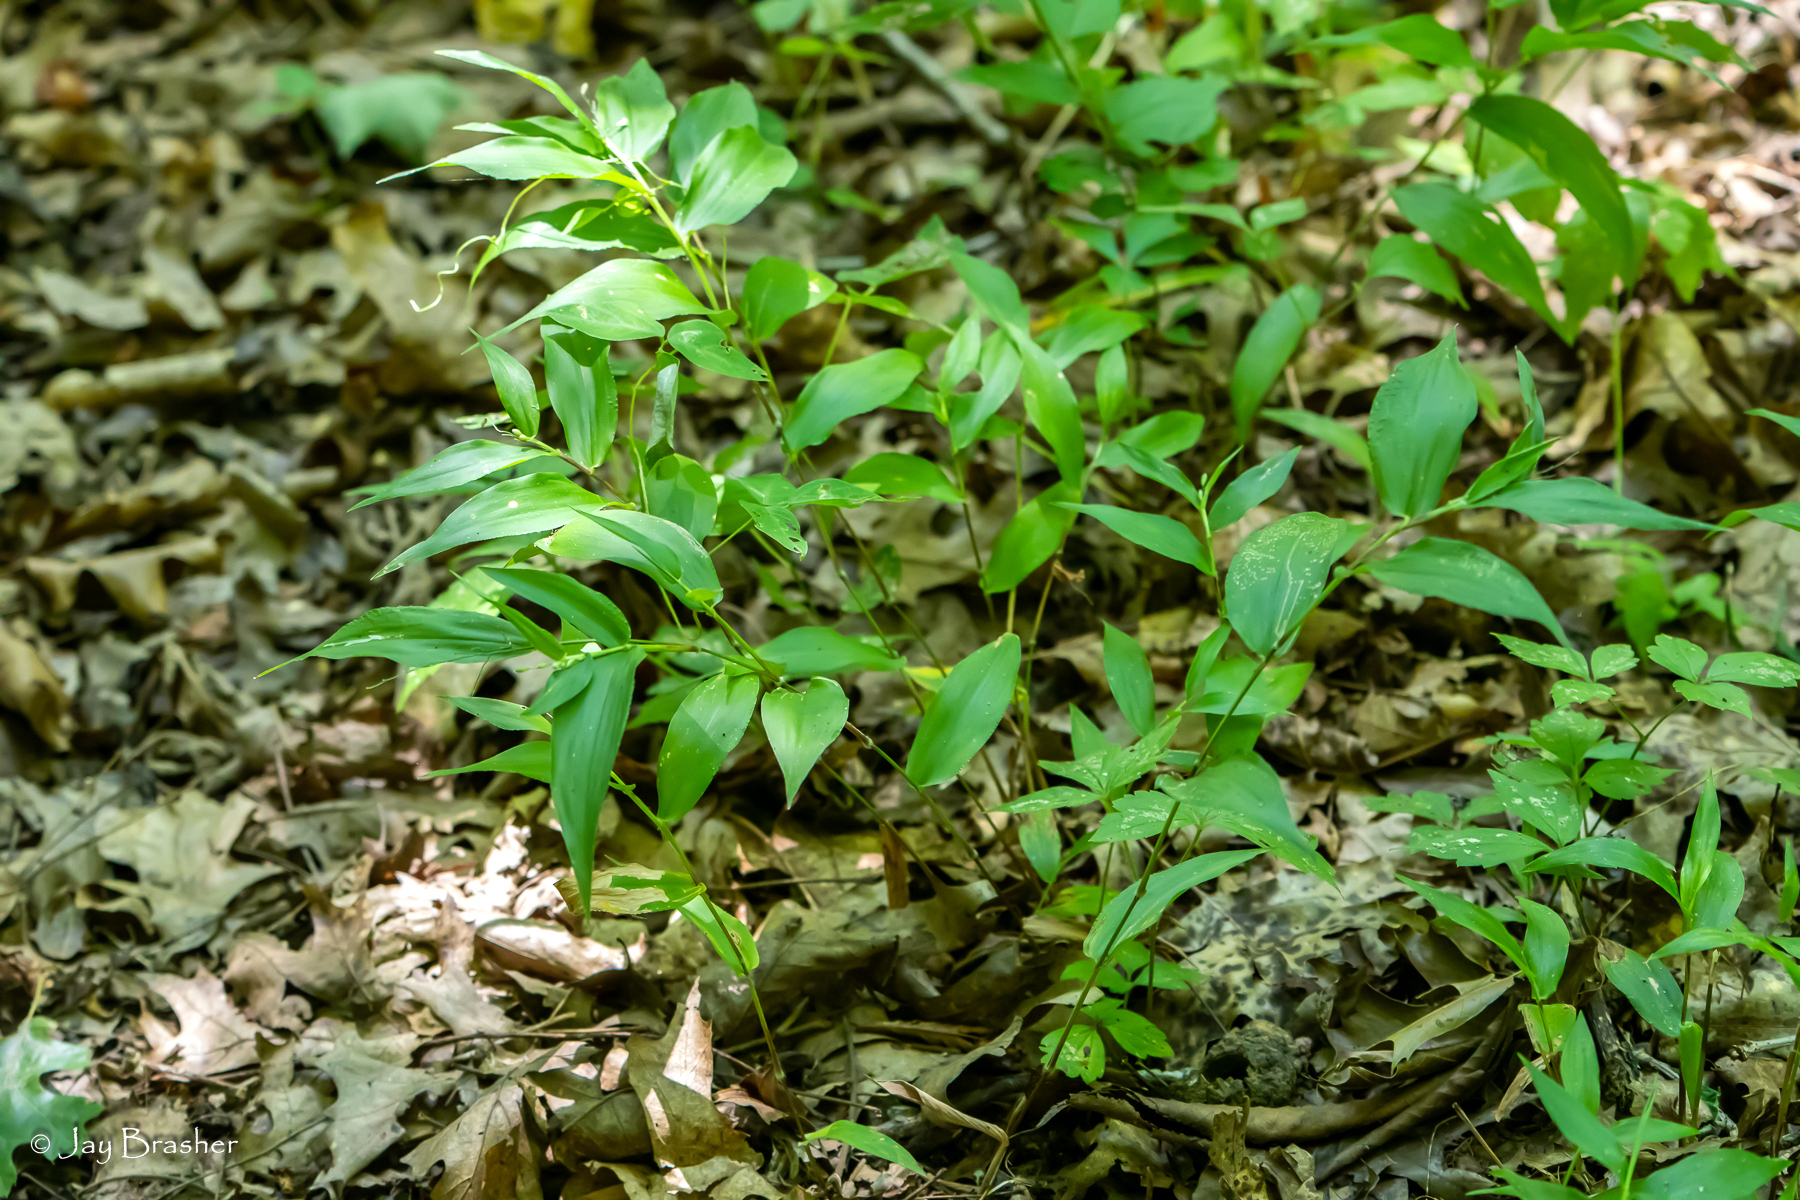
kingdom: Plantae
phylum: Tracheophyta
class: Liliopsida
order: Poales
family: Poaceae
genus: Dichanthelium
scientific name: Dichanthelium boscii
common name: Bosc's panic grass
